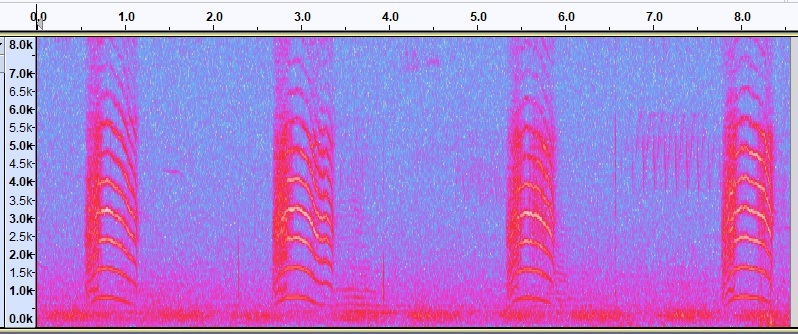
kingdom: Animalia
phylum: Chordata
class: Aves
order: Passeriformes
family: Mimidae
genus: Dumetella
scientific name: Dumetella carolinensis
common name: Gray catbird
